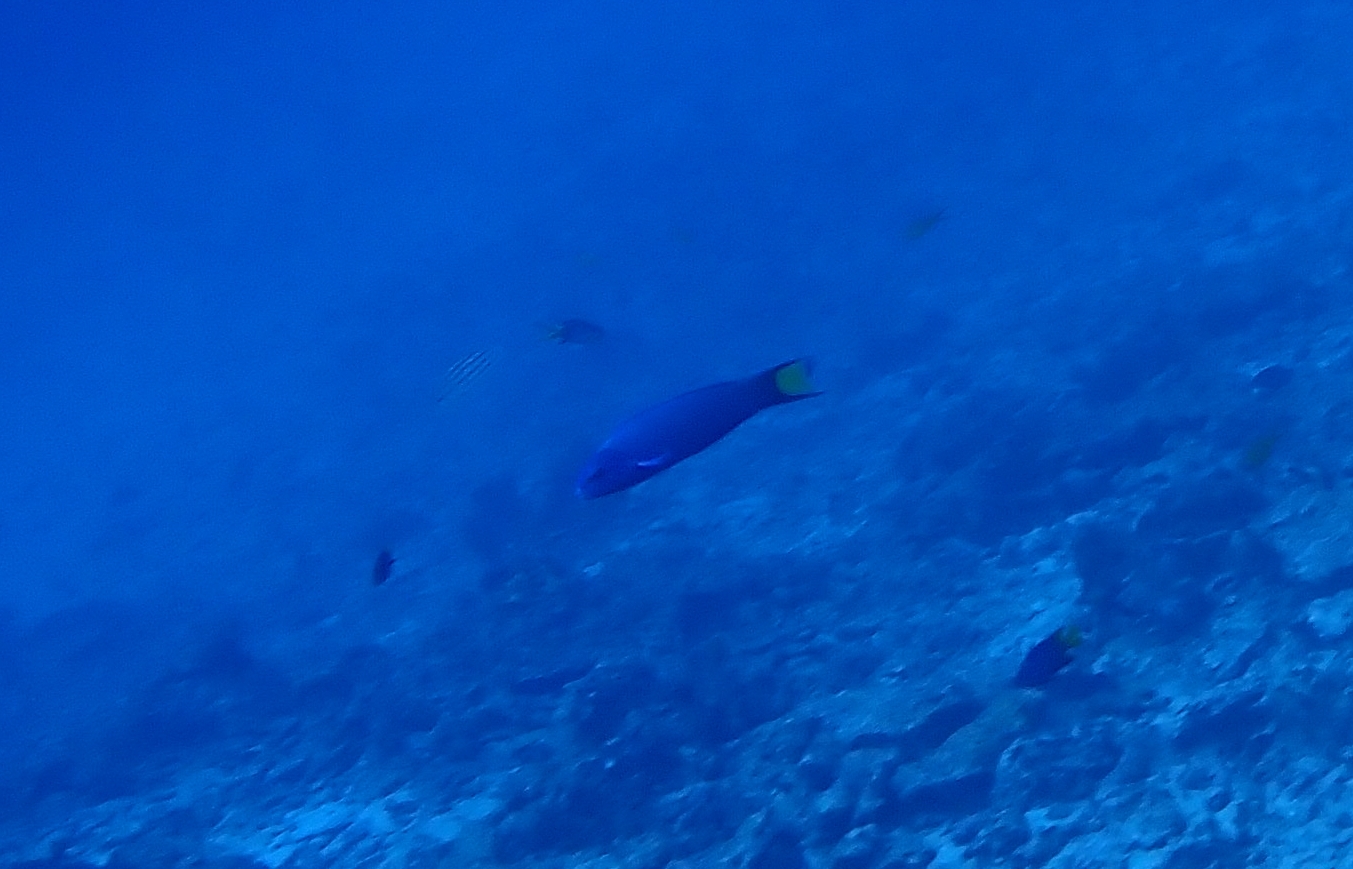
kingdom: Animalia
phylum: Chordata
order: Perciformes
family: Labridae
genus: Thalassoma
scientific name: Thalassoma lunare
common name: Blue wrasse
